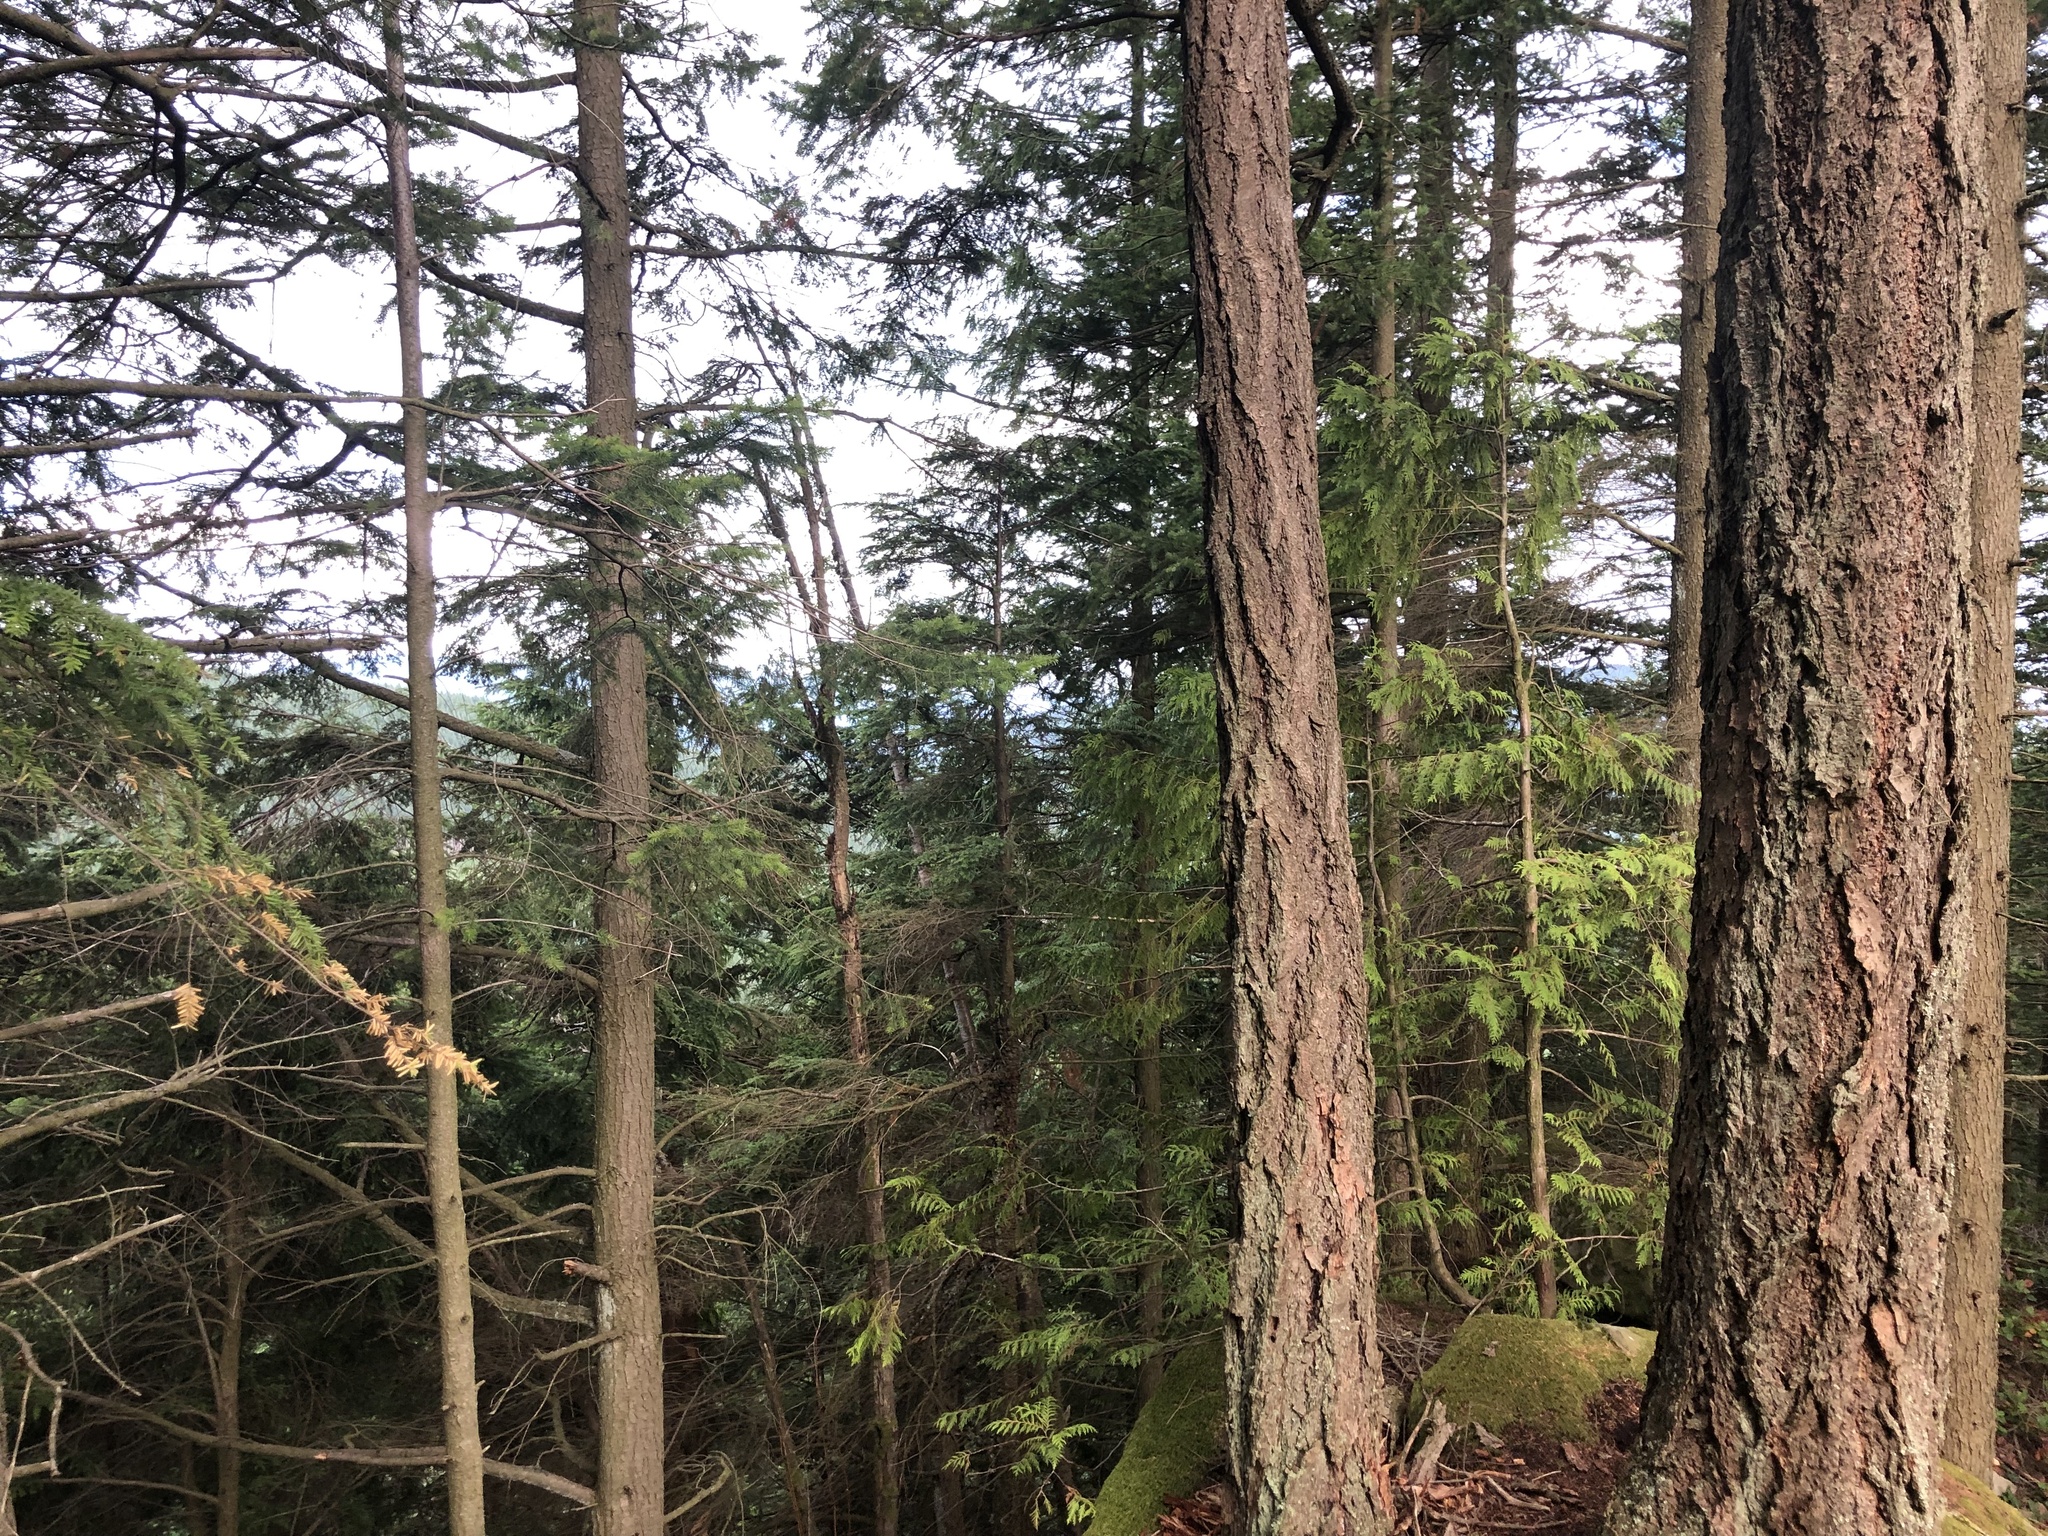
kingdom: Plantae
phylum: Tracheophyta
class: Pinopsida
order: Pinales
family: Pinaceae
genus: Pseudotsuga
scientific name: Pseudotsuga menziesii
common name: Douglas fir
